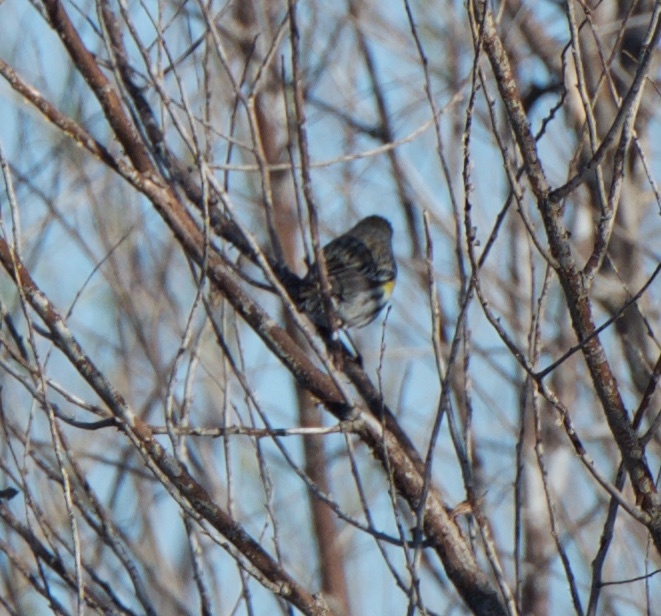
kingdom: Animalia
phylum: Chordata
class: Aves
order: Passeriformes
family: Parulidae
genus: Setophaga
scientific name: Setophaga coronata
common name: Myrtle warbler
